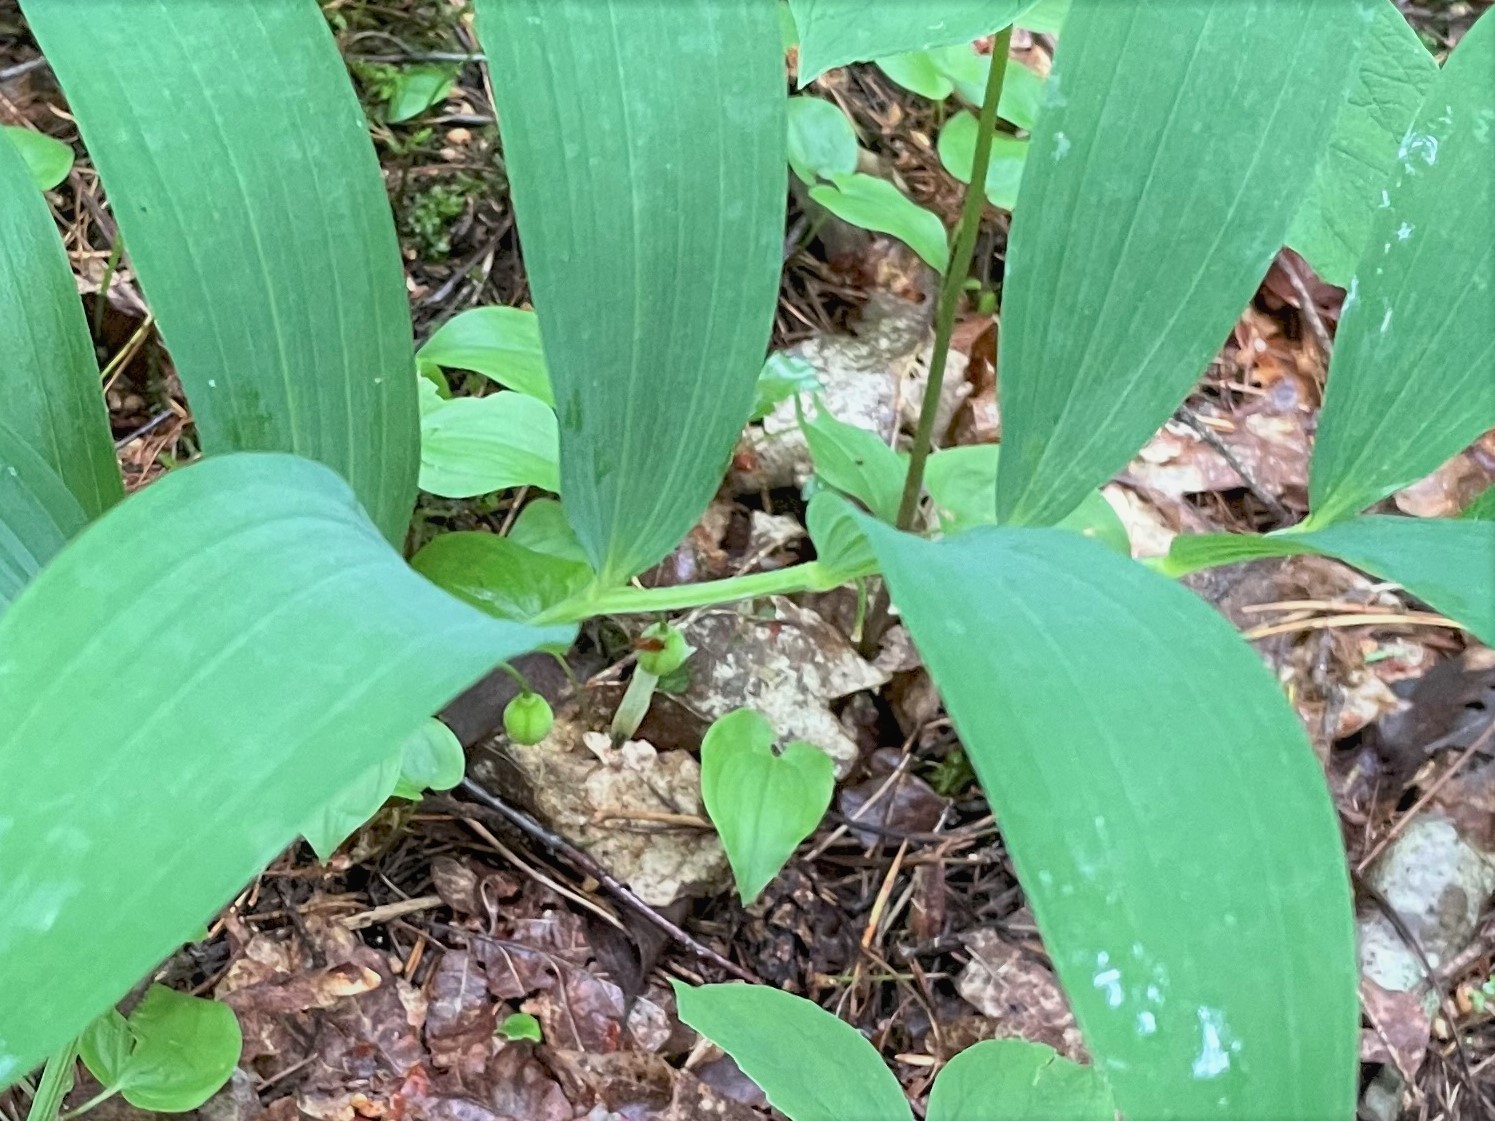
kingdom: Plantae
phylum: Tracheophyta
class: Liliopsida
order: Asparagales
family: Asparagaceae
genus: Polygonatum
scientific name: Polygonatum odoratum
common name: Angular solomon's-seal
